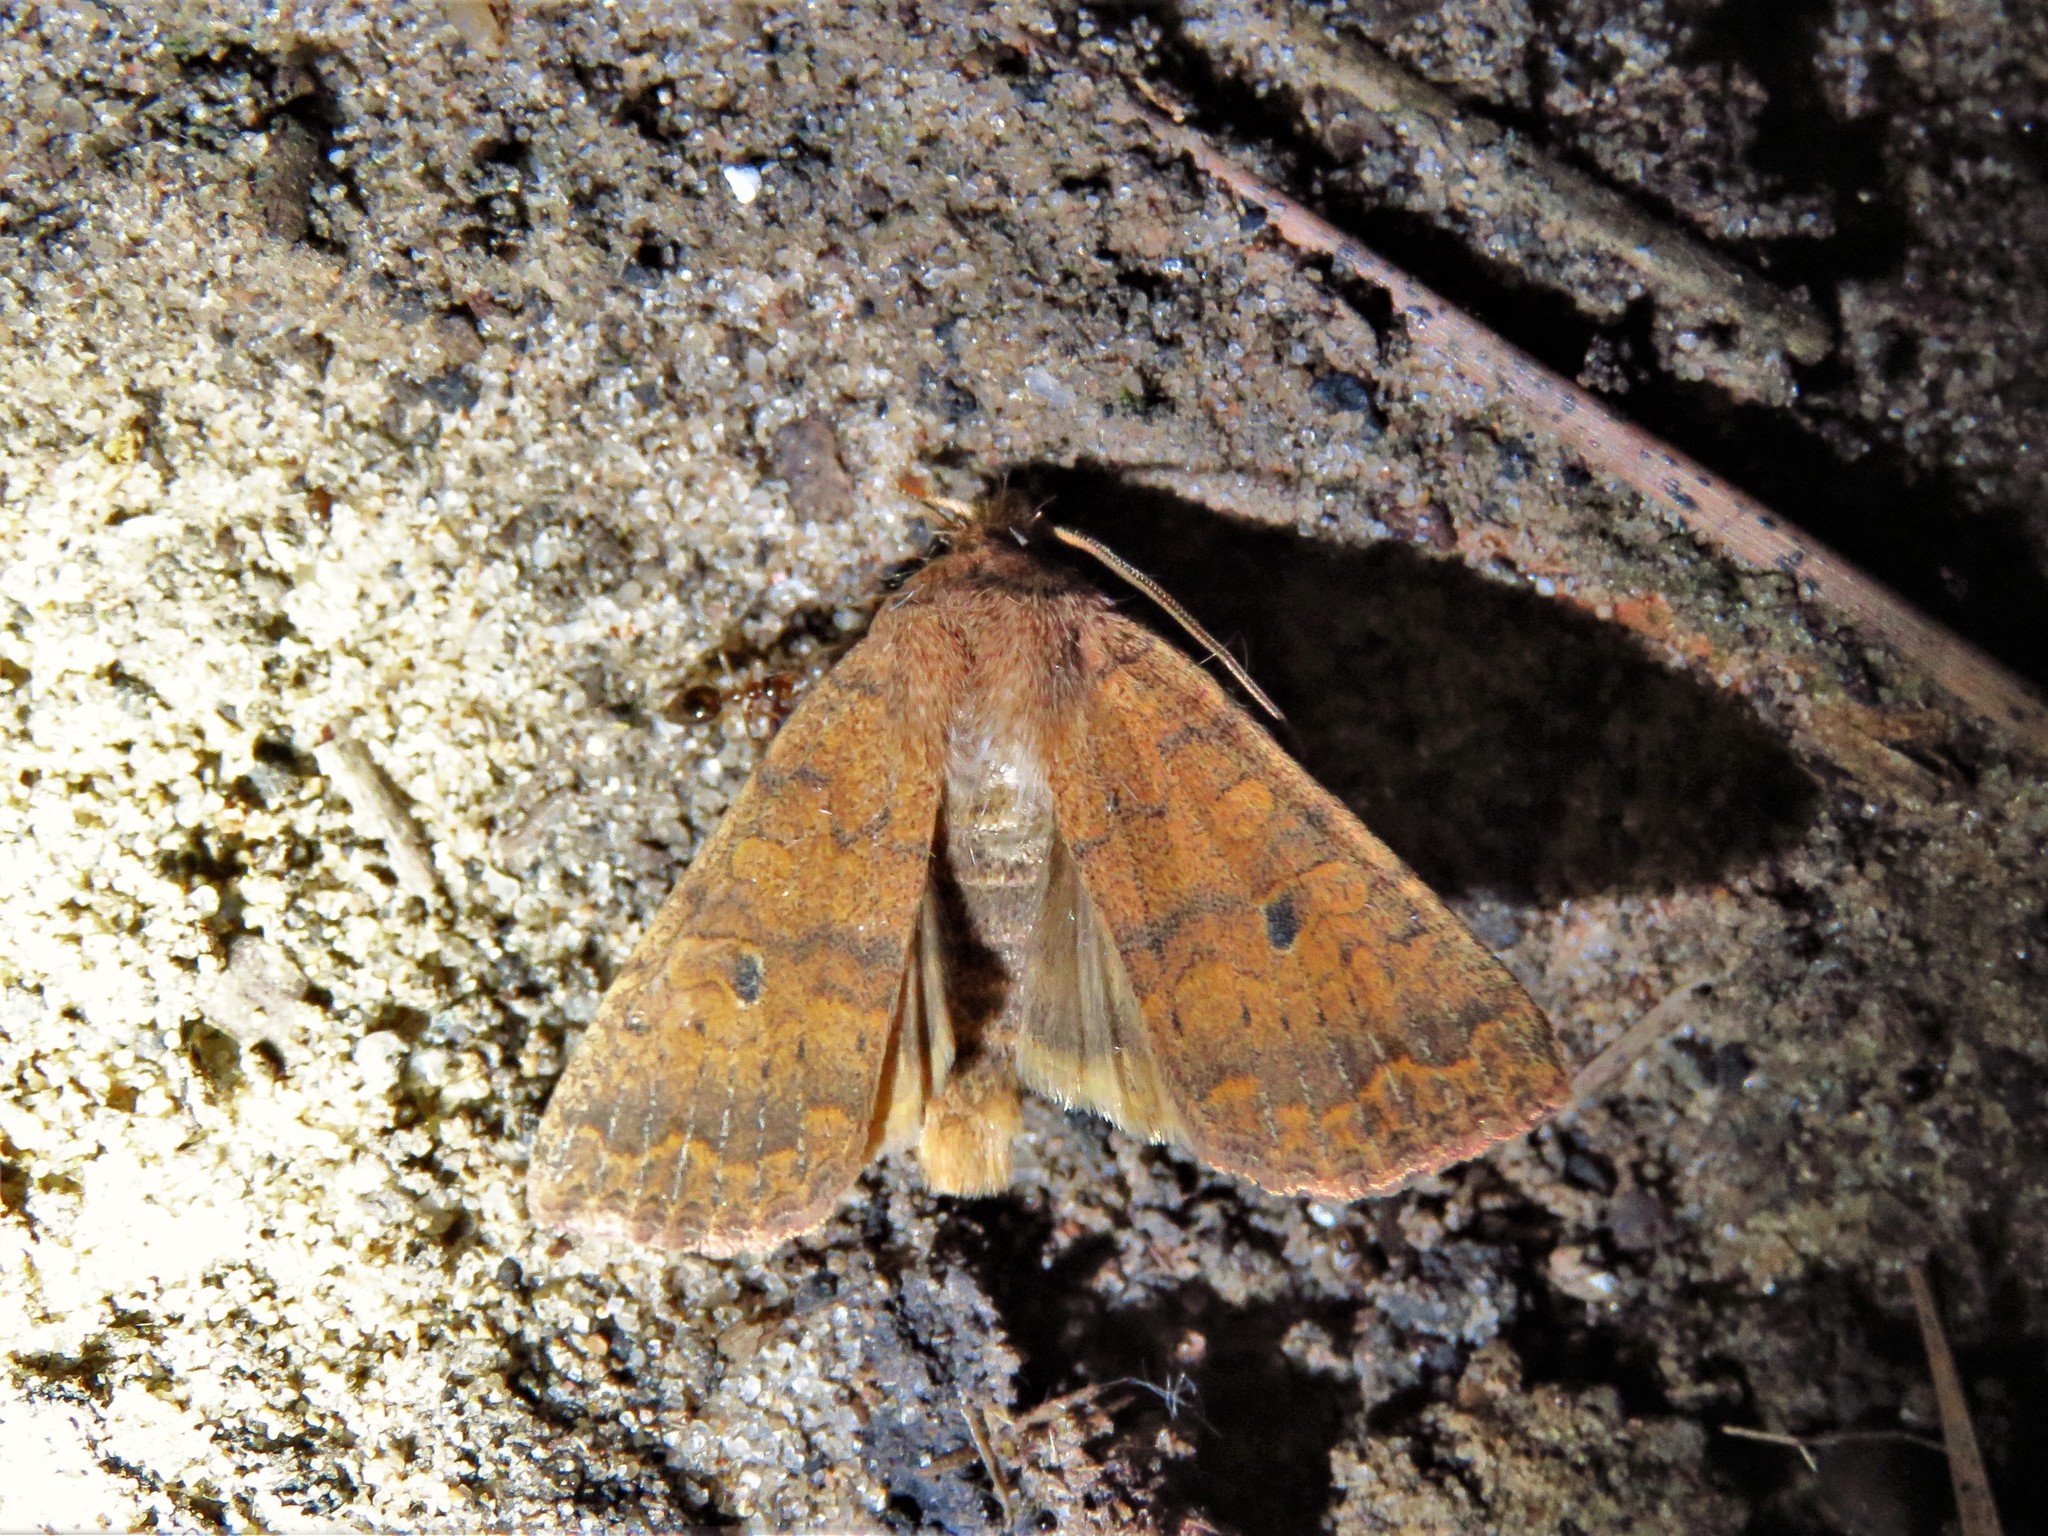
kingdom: Animalia
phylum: Arthropoda
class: Insecta
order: Lepidoptera
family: Noctuidae
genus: Agrochola
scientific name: Agrochola bicolorago
